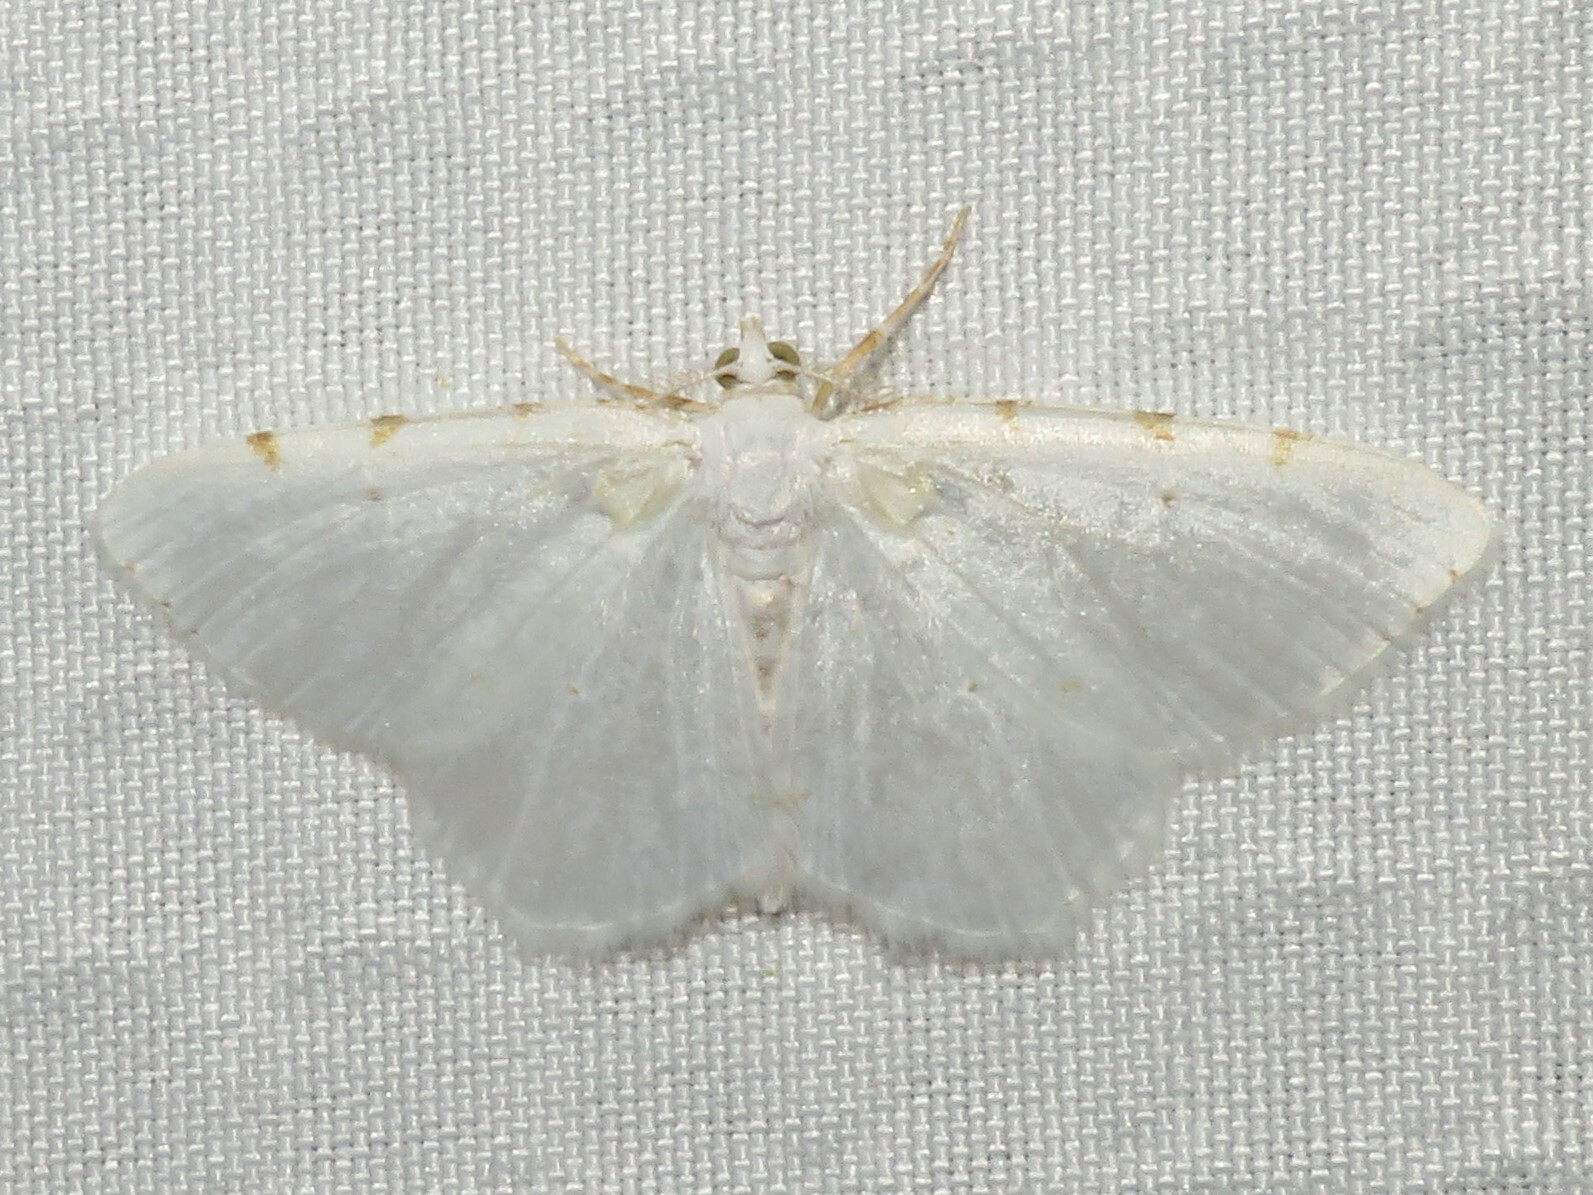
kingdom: Animalia
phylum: Arthropoda
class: Insecta
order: Lepidoptera
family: Geometridae
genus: Macaria
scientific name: Macaria pustularia
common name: Lesser maple spanworm moth
